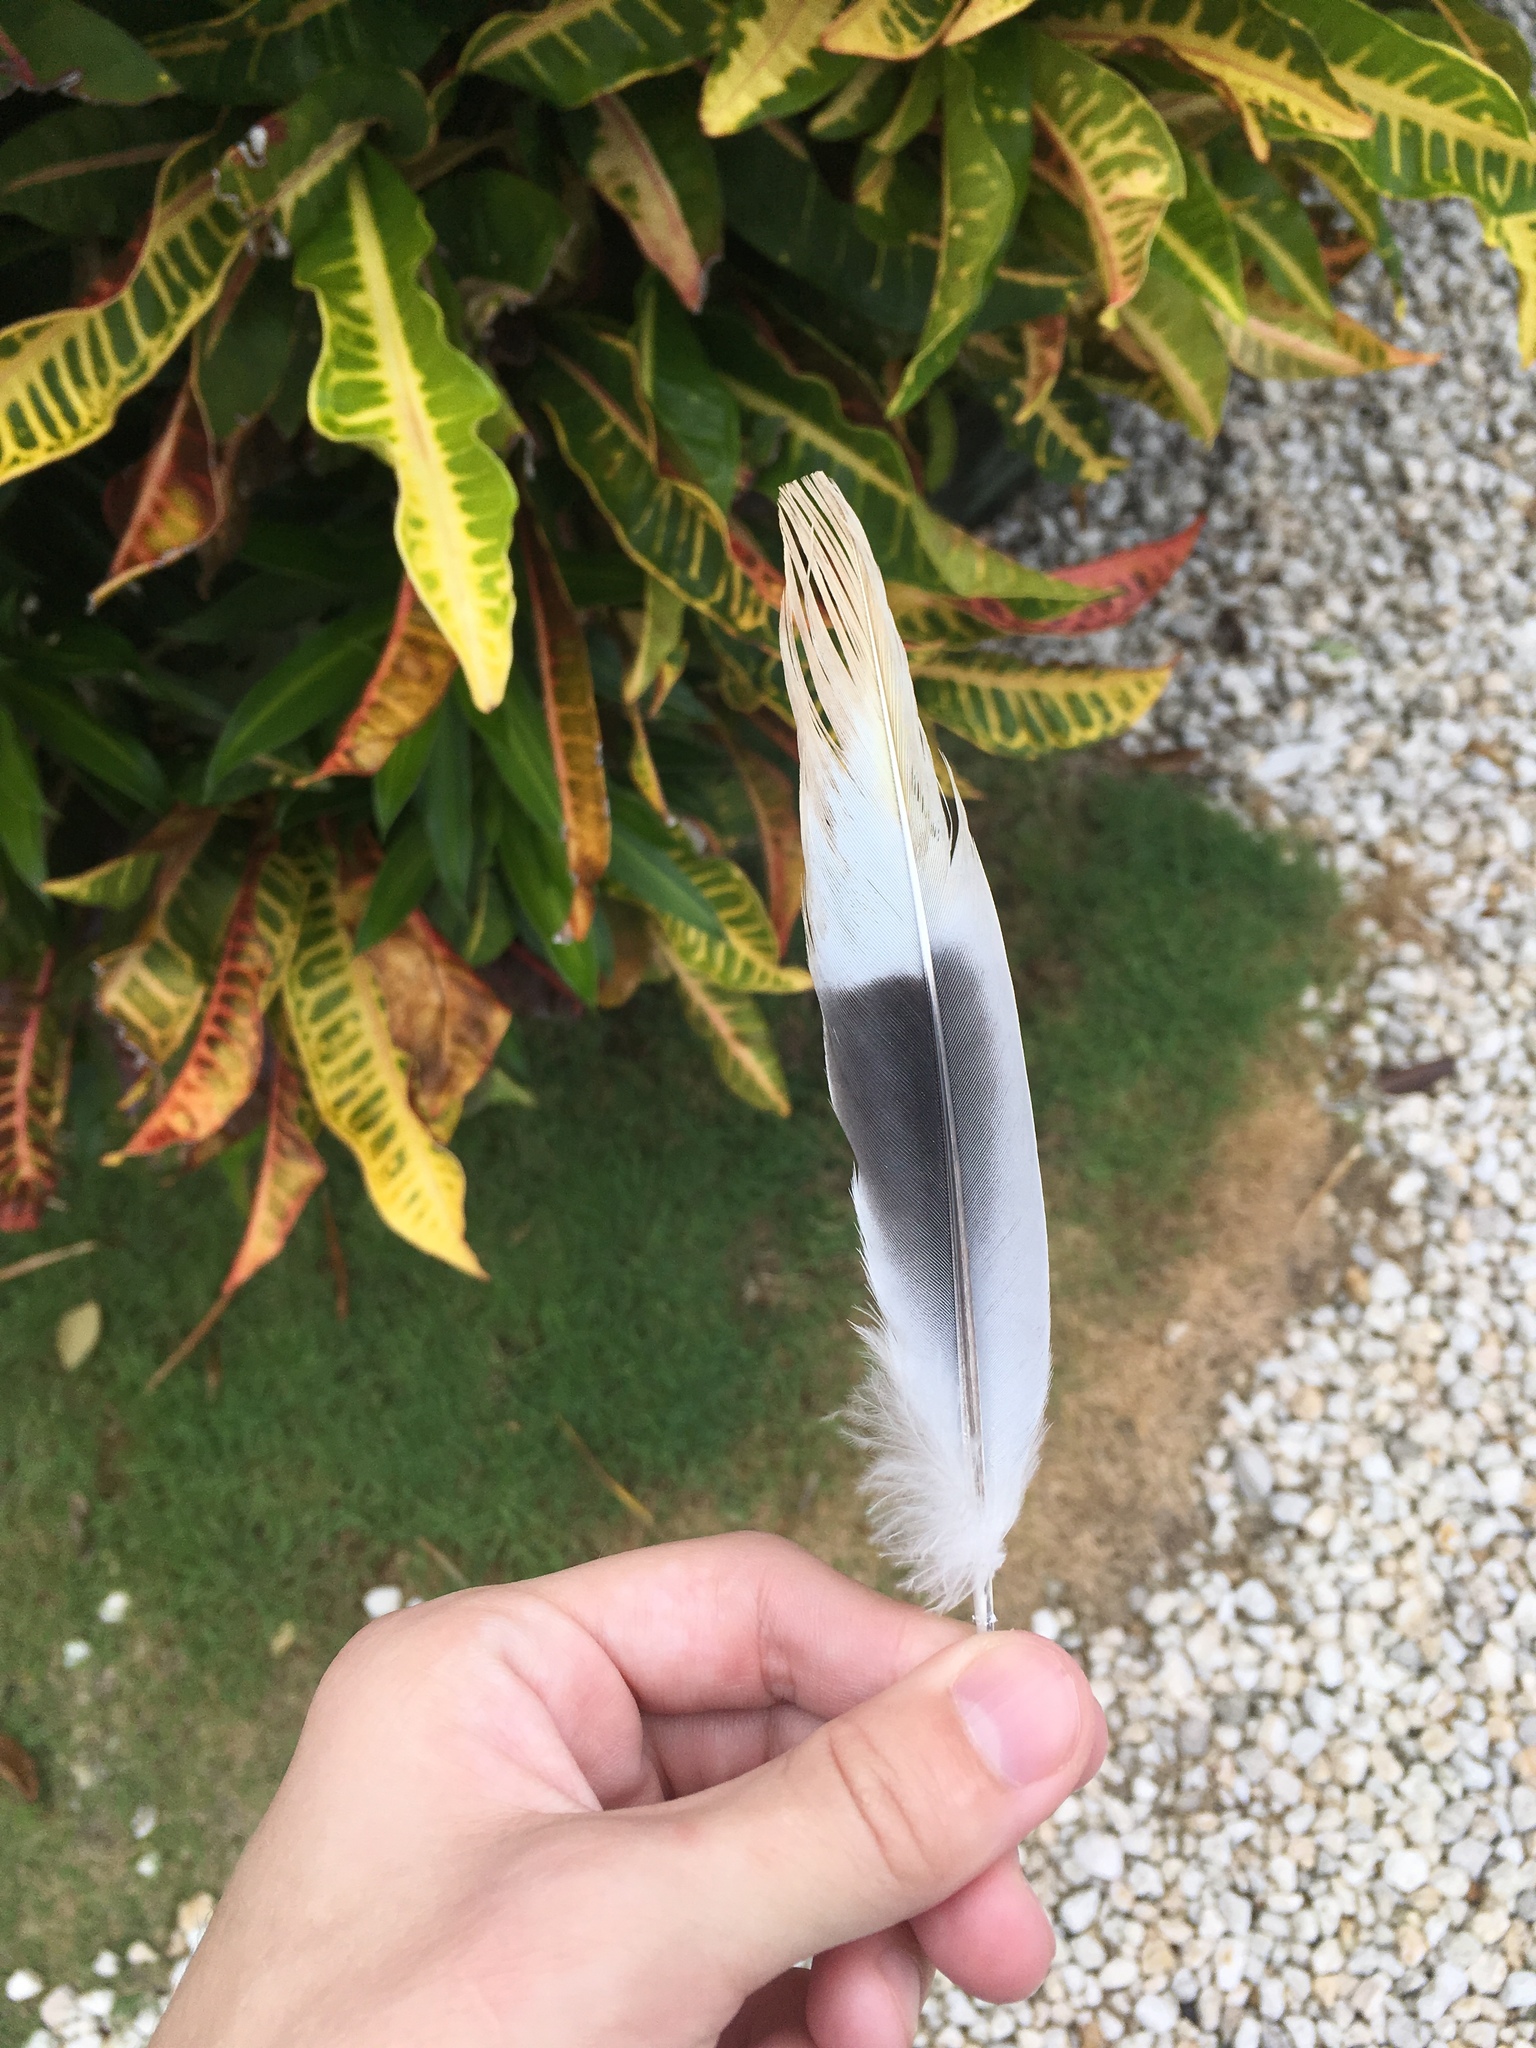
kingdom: Animalia
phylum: Chordata
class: Aves
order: Columbiformes
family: Columbidae
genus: Streptopelia
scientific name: Streptopelia decaocto
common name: Eurasian collared dove
